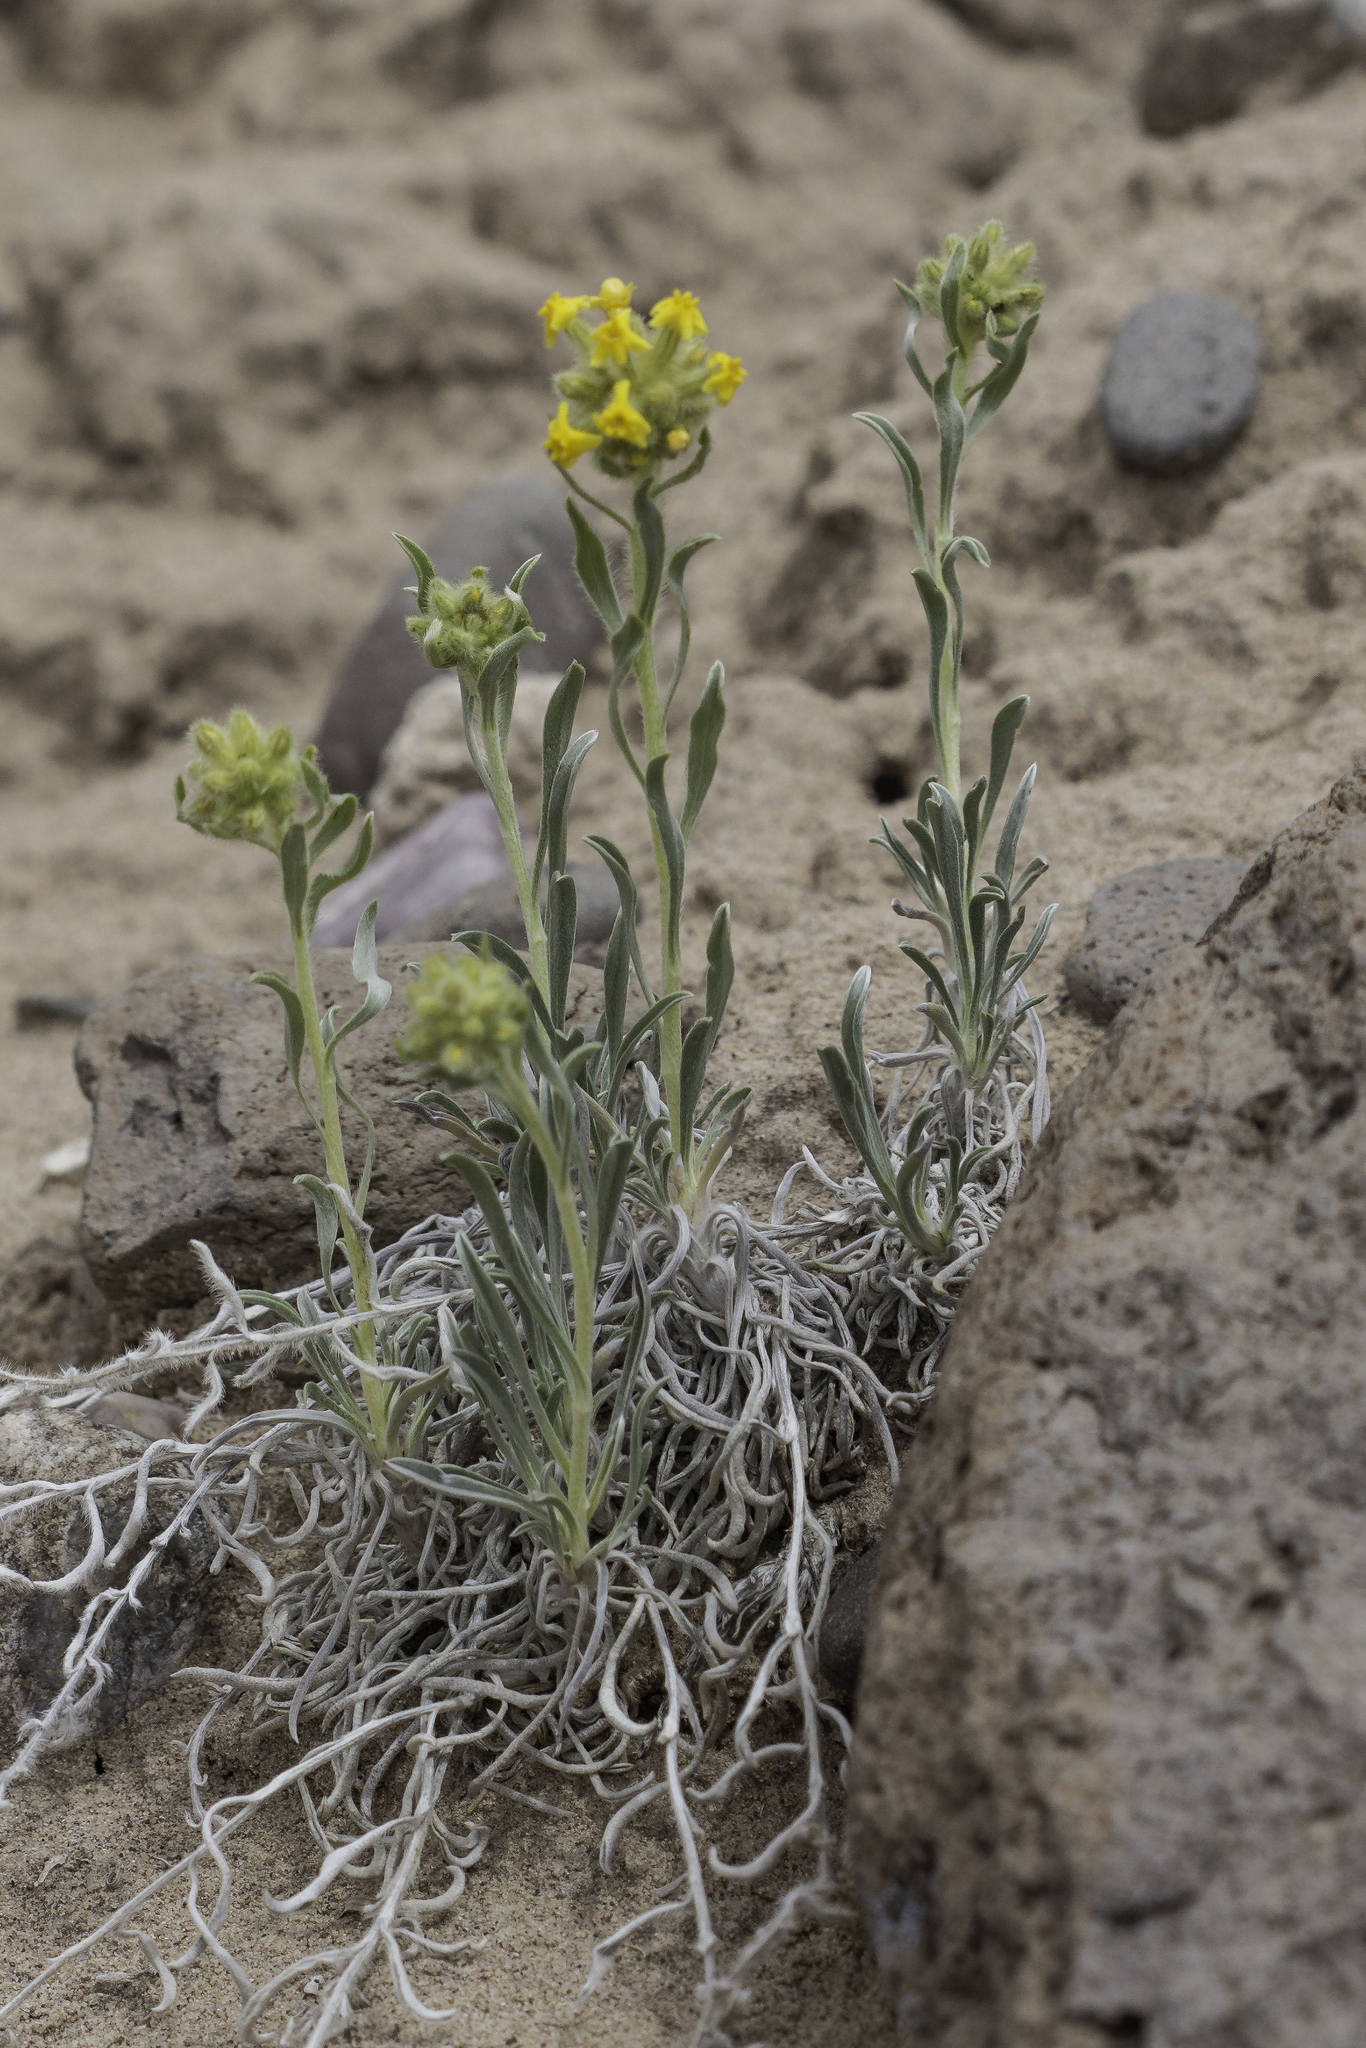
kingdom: Plantae
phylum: Tracheophyta
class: Magnoliopsida
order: Boraginales
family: Boraginaceae
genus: Oreocarya
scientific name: Oreocarya flava
